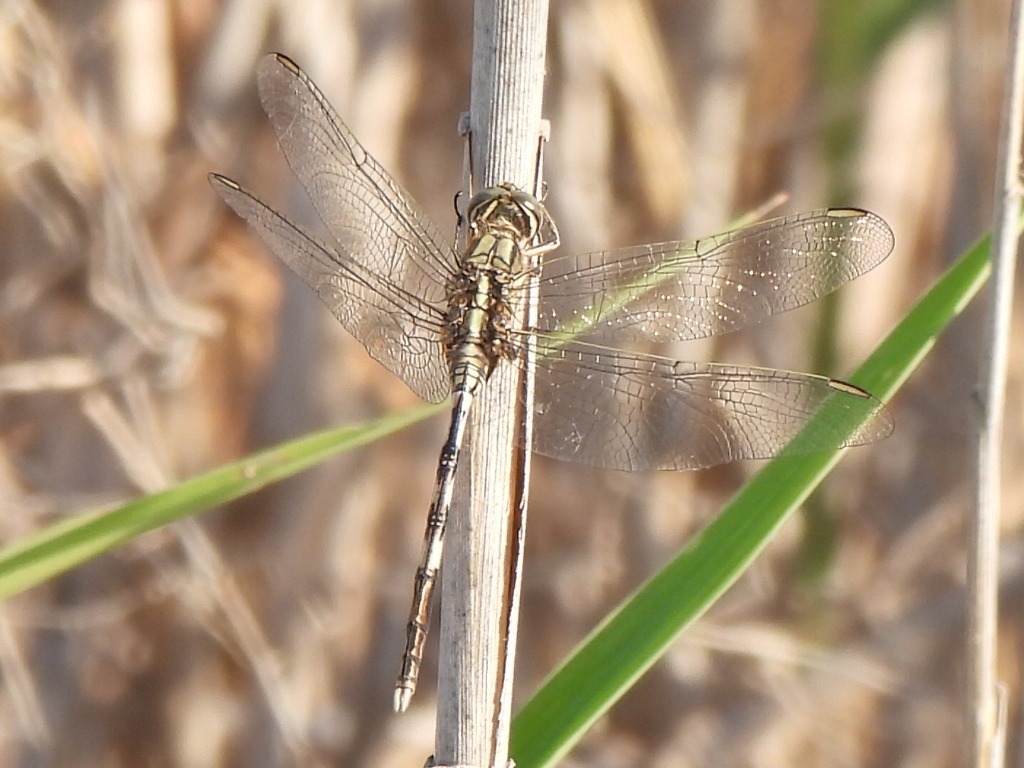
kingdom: Animalia
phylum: Arthropoda
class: Insecta
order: Odonata
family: Libellulidae
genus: Orthetrum
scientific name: Orthetrum sabina
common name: Slender skimmer
